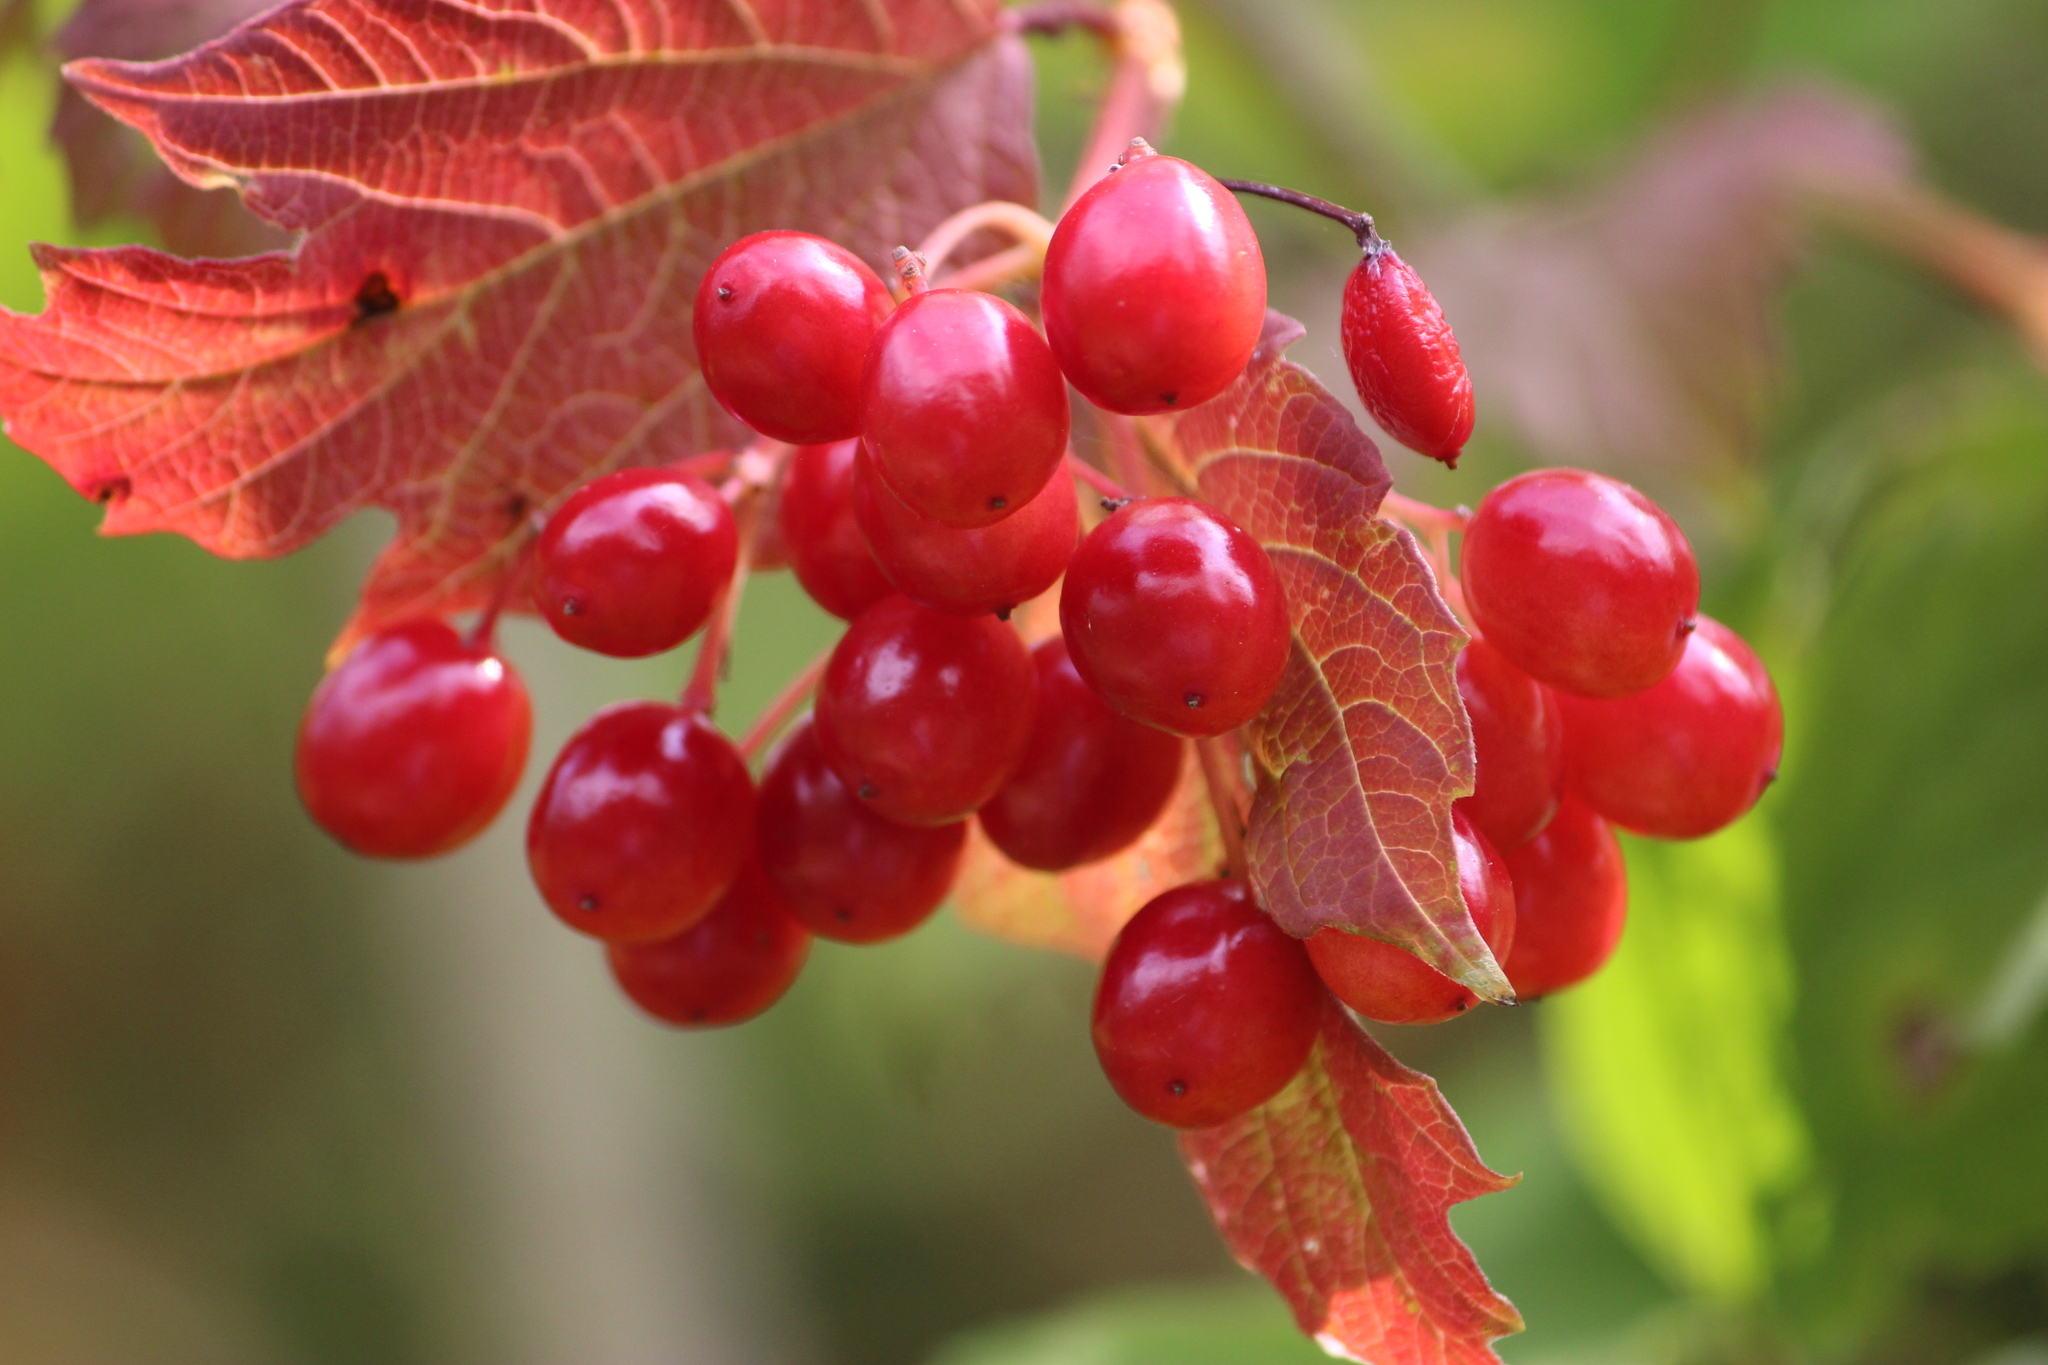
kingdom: Plantae
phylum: Tracheophyta
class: Magnoliopsida
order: Dipsacales
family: Viburnaceae
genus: Viburnum
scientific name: Viburnum opulus
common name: Guelder-rose
